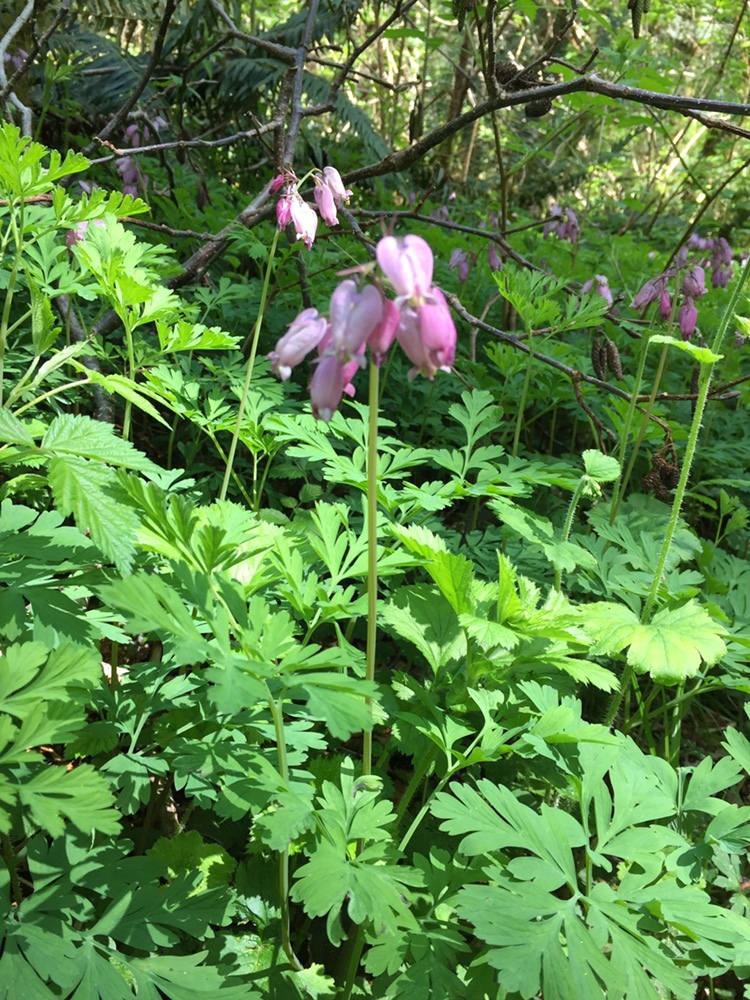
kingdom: Plantae
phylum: Tracheophyta
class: Magnoliopsida
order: Ranunculales
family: Papaveraceae
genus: Dicentra
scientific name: Dicentra formosa
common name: Bleeding-heart
